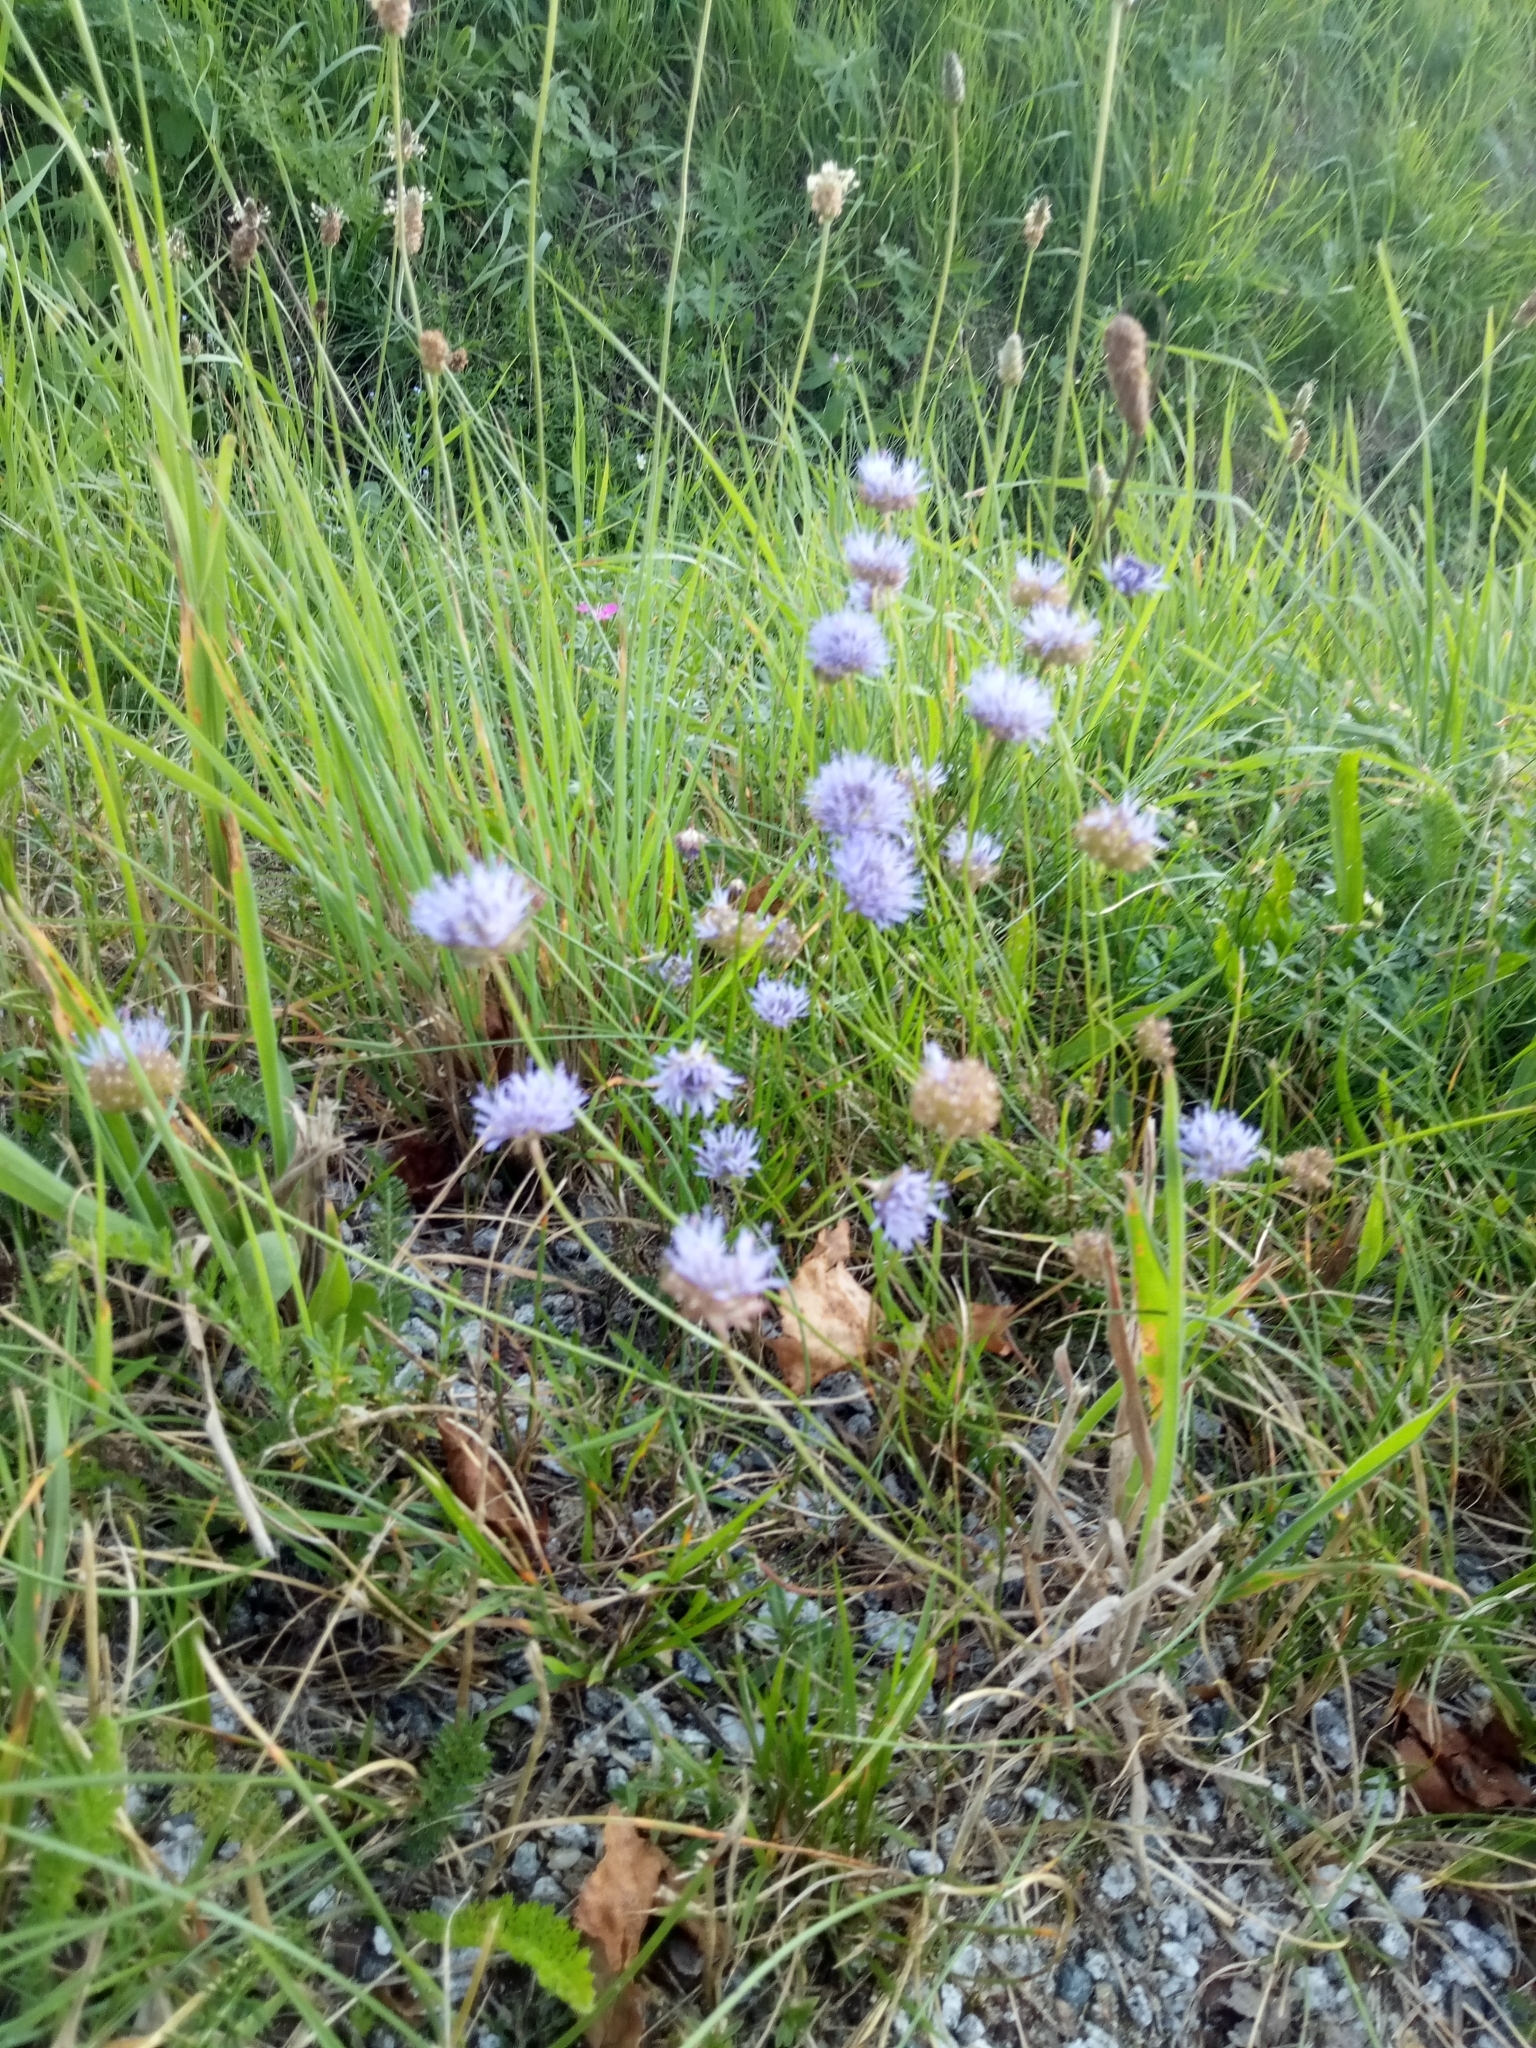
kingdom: Plantae
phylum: Tracheophyta
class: Magnoliopsida
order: Asterales
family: Campanulaceae
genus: Jasione
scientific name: Jasione montana
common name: Sheep's-bit
